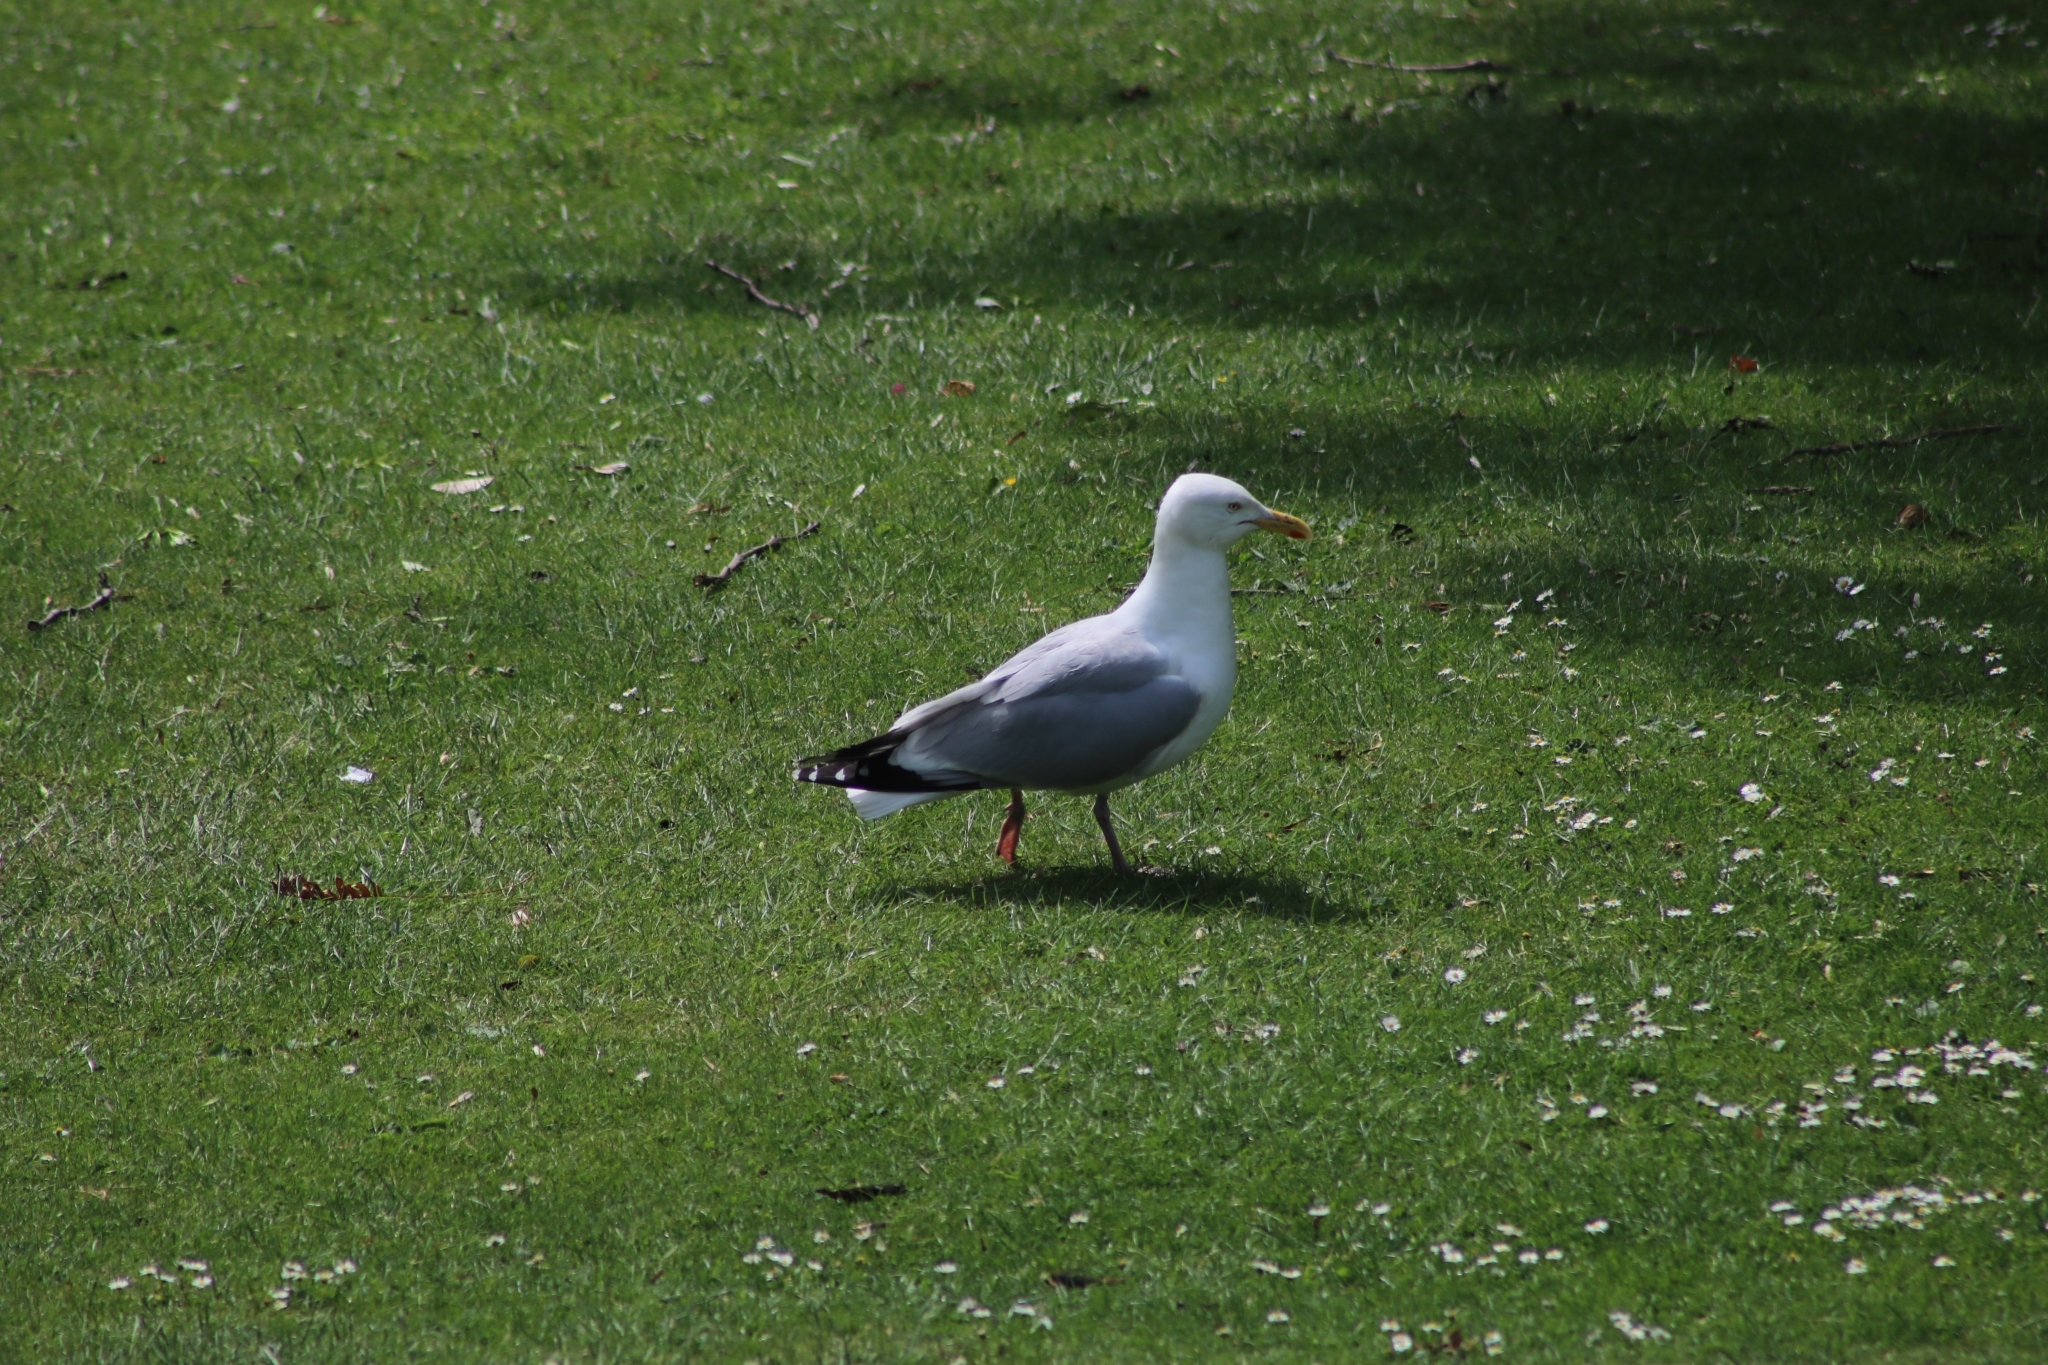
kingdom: Animalia
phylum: Chordata
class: Aves
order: Charadriiformes
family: Laridae
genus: Larus
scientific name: Larus argentatus
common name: Herring gull
